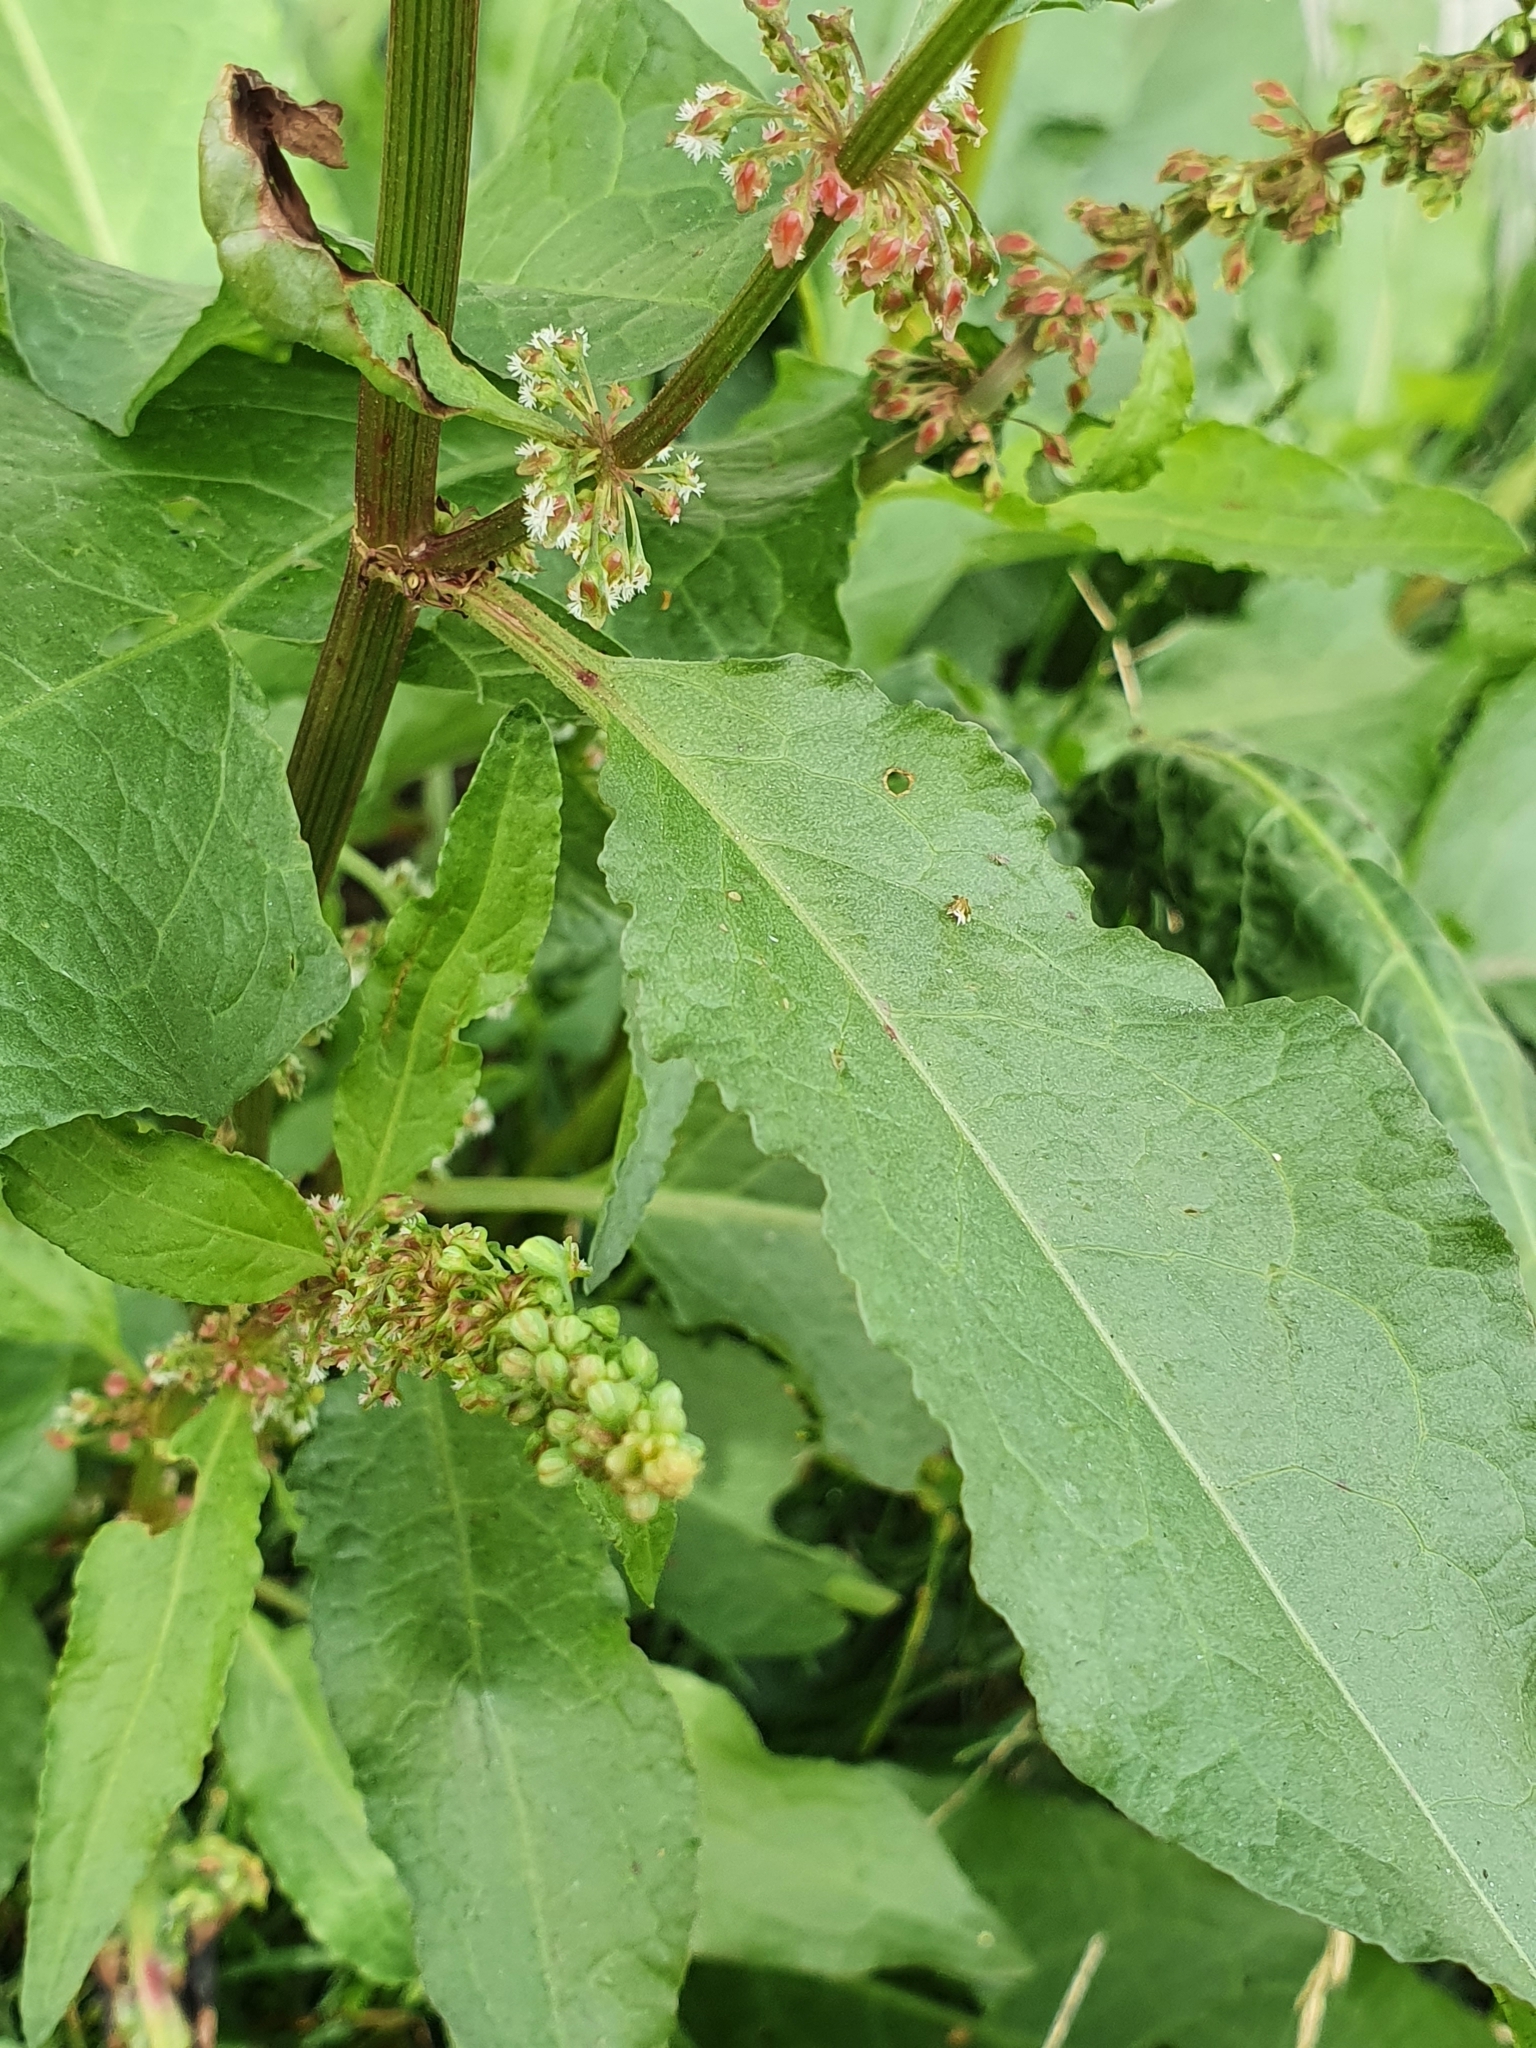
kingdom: Plantae
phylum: Tracheophyta
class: Magnoliopsida
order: Caryophyllales
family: Polygonaceae
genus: Rumex
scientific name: Rumex obtusifolius
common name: Bitter dock
